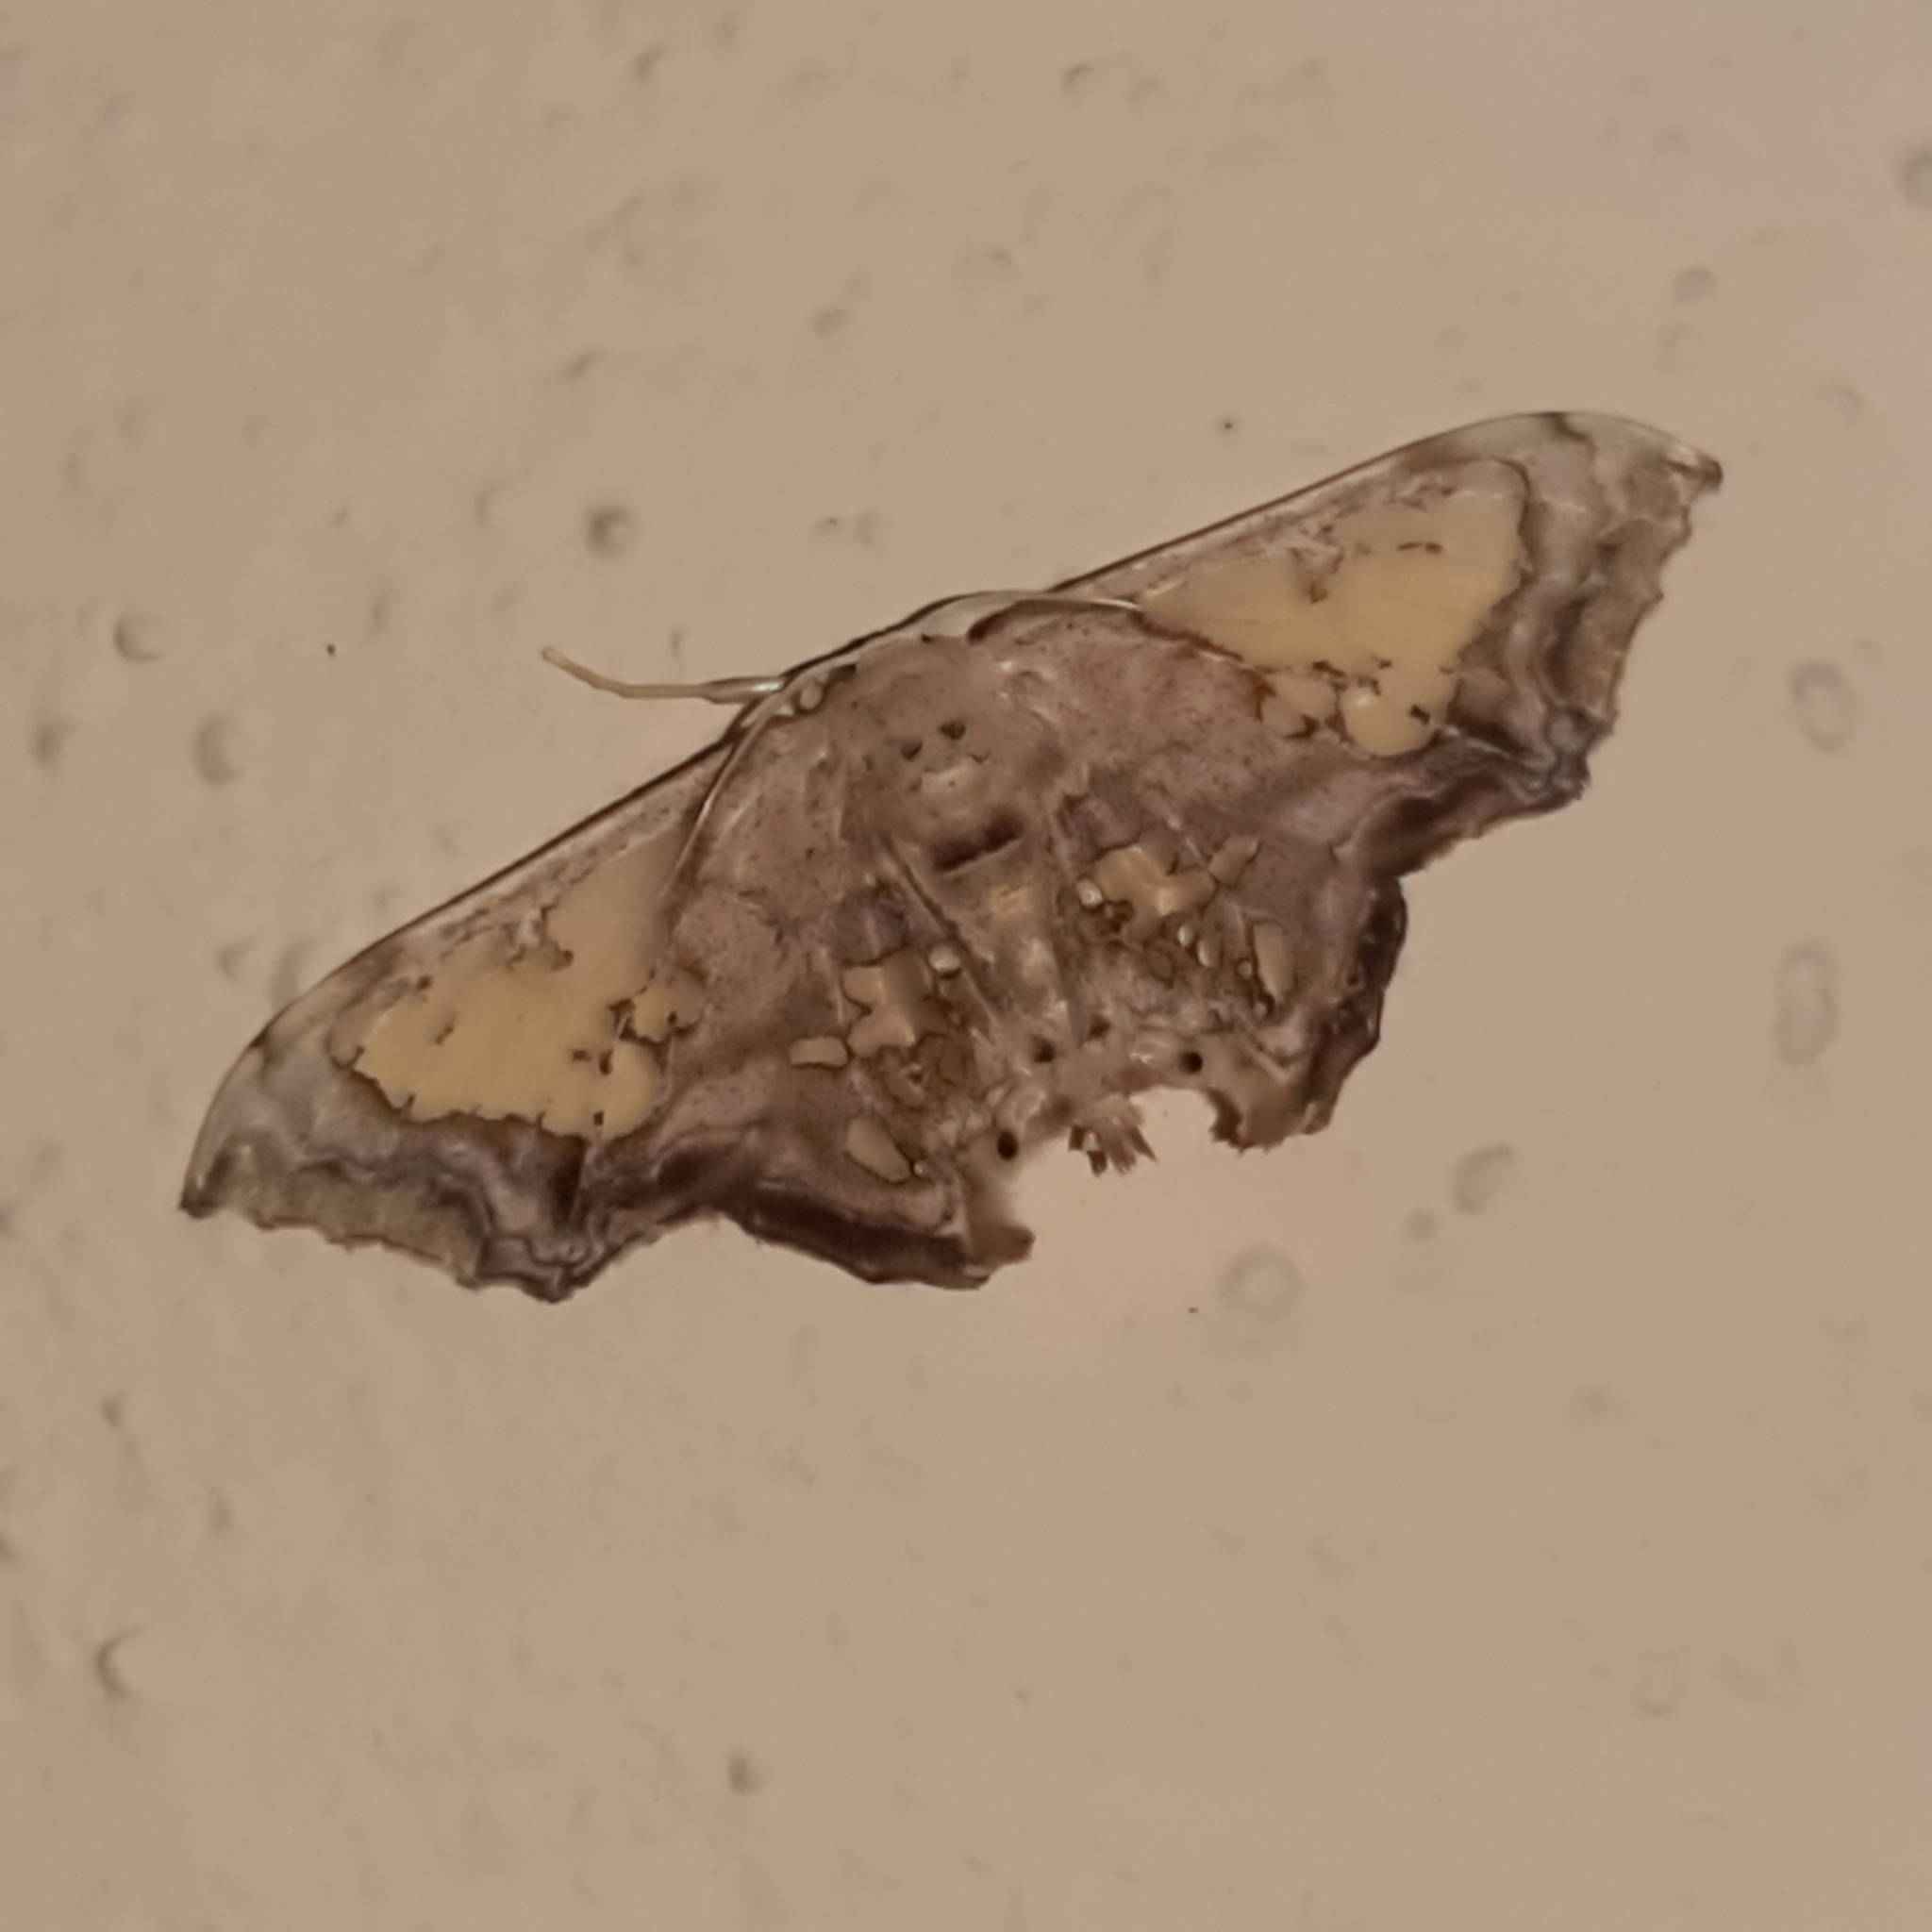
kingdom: Animalia
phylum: Arthropoda
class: Insecta
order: Lepidoptera
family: Geometridae
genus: Pseudasellodes
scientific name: Pseudasellodes fenestraria
